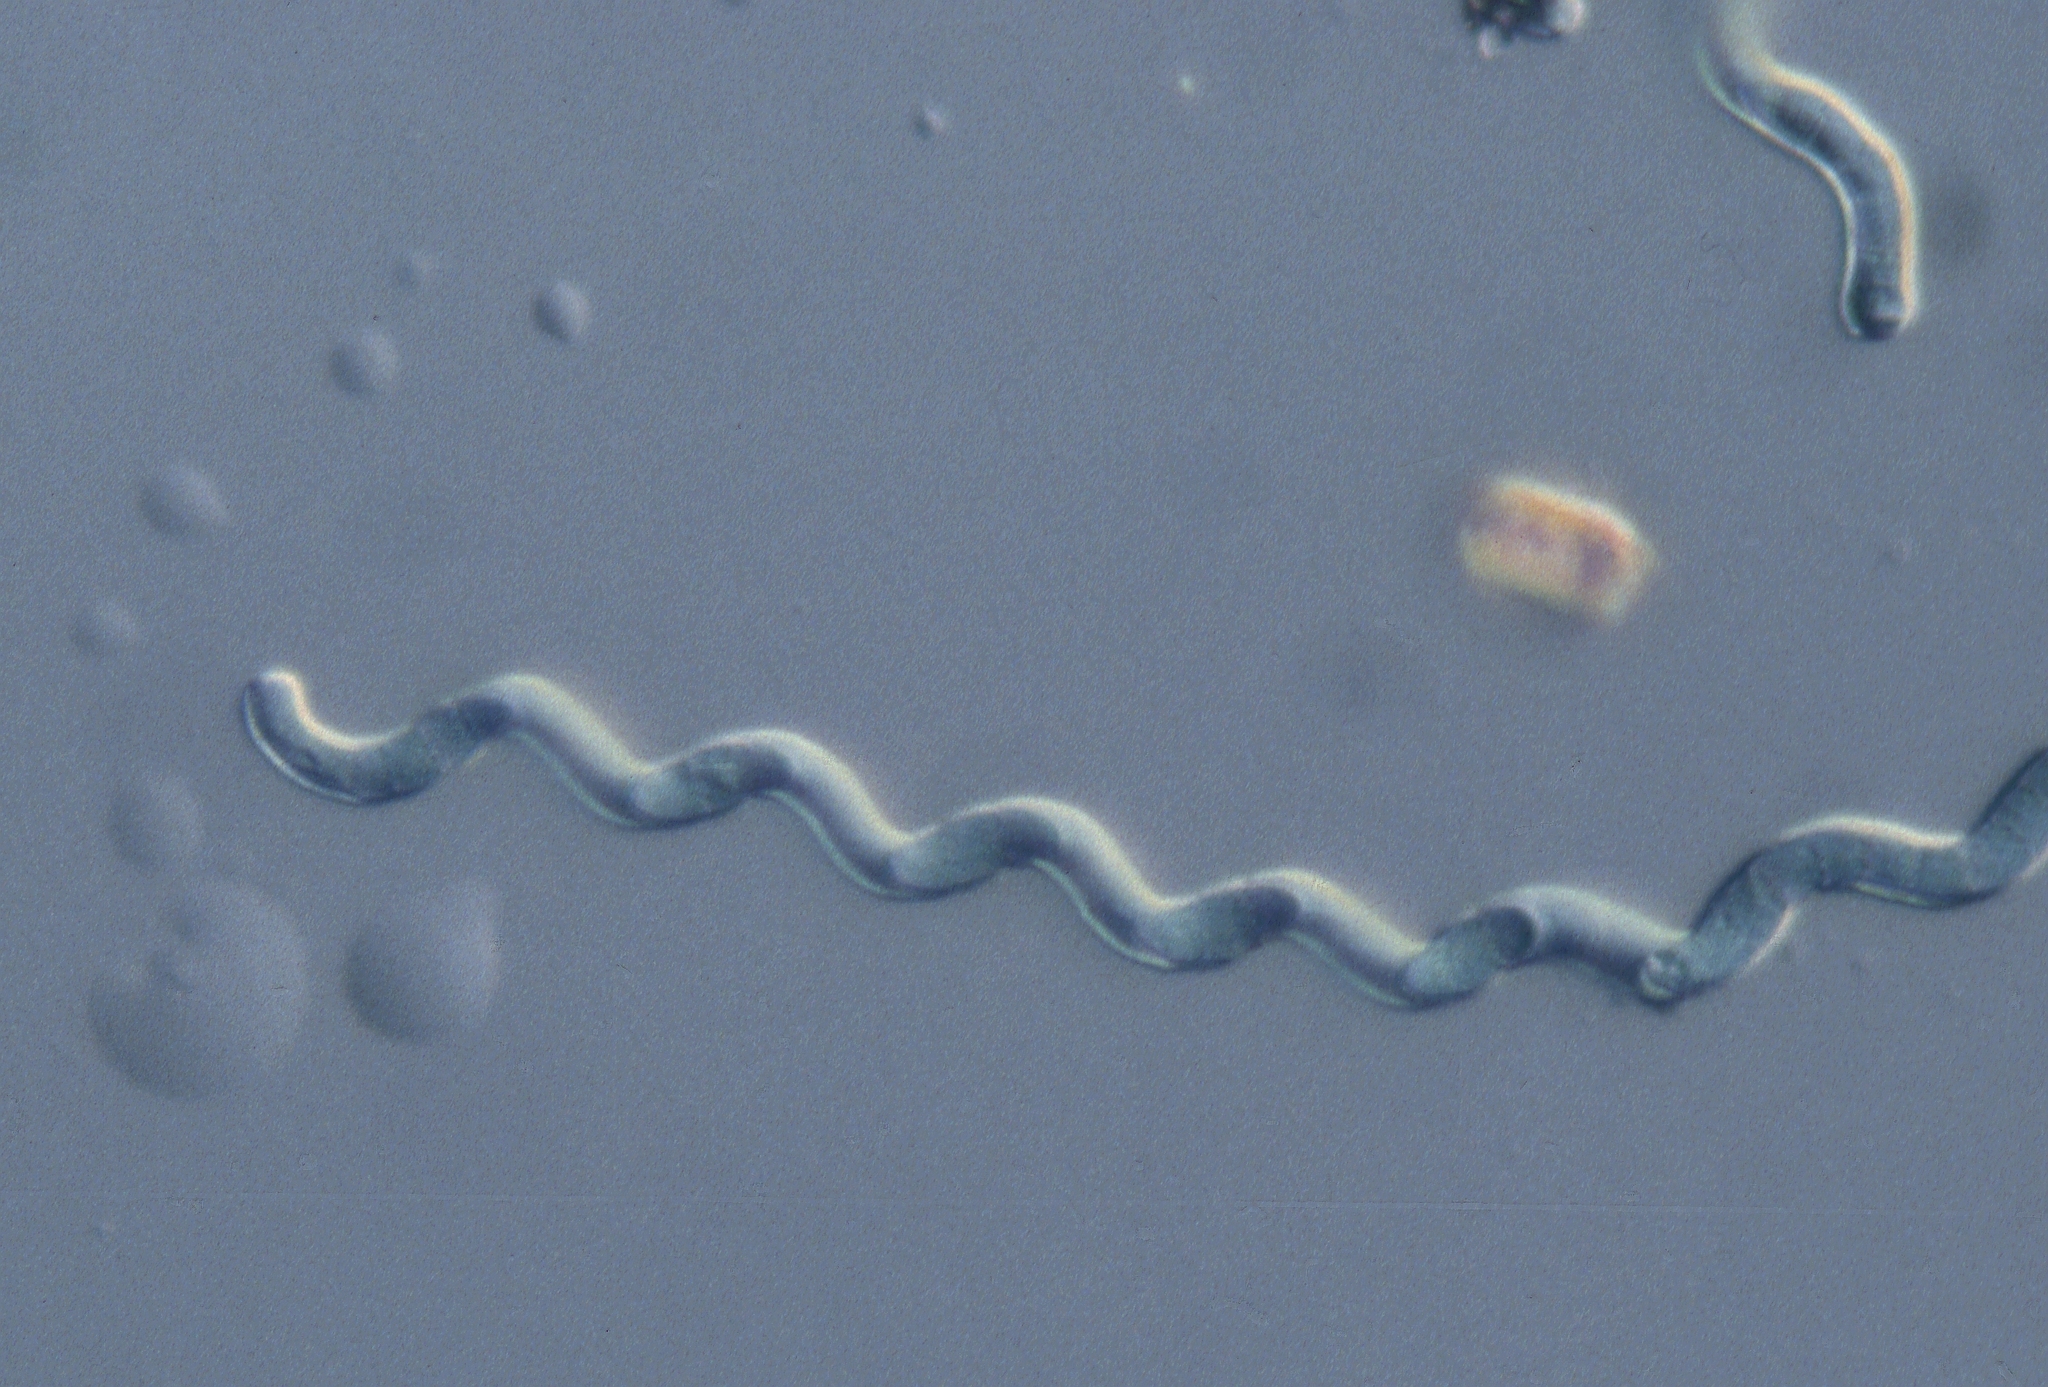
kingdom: Bacteria
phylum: Cyanobacteria
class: Cyanobacteriia
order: Cyanobacteriales
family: Microcoleaceae
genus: Arthrospira
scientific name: Arthrospira jenneri
